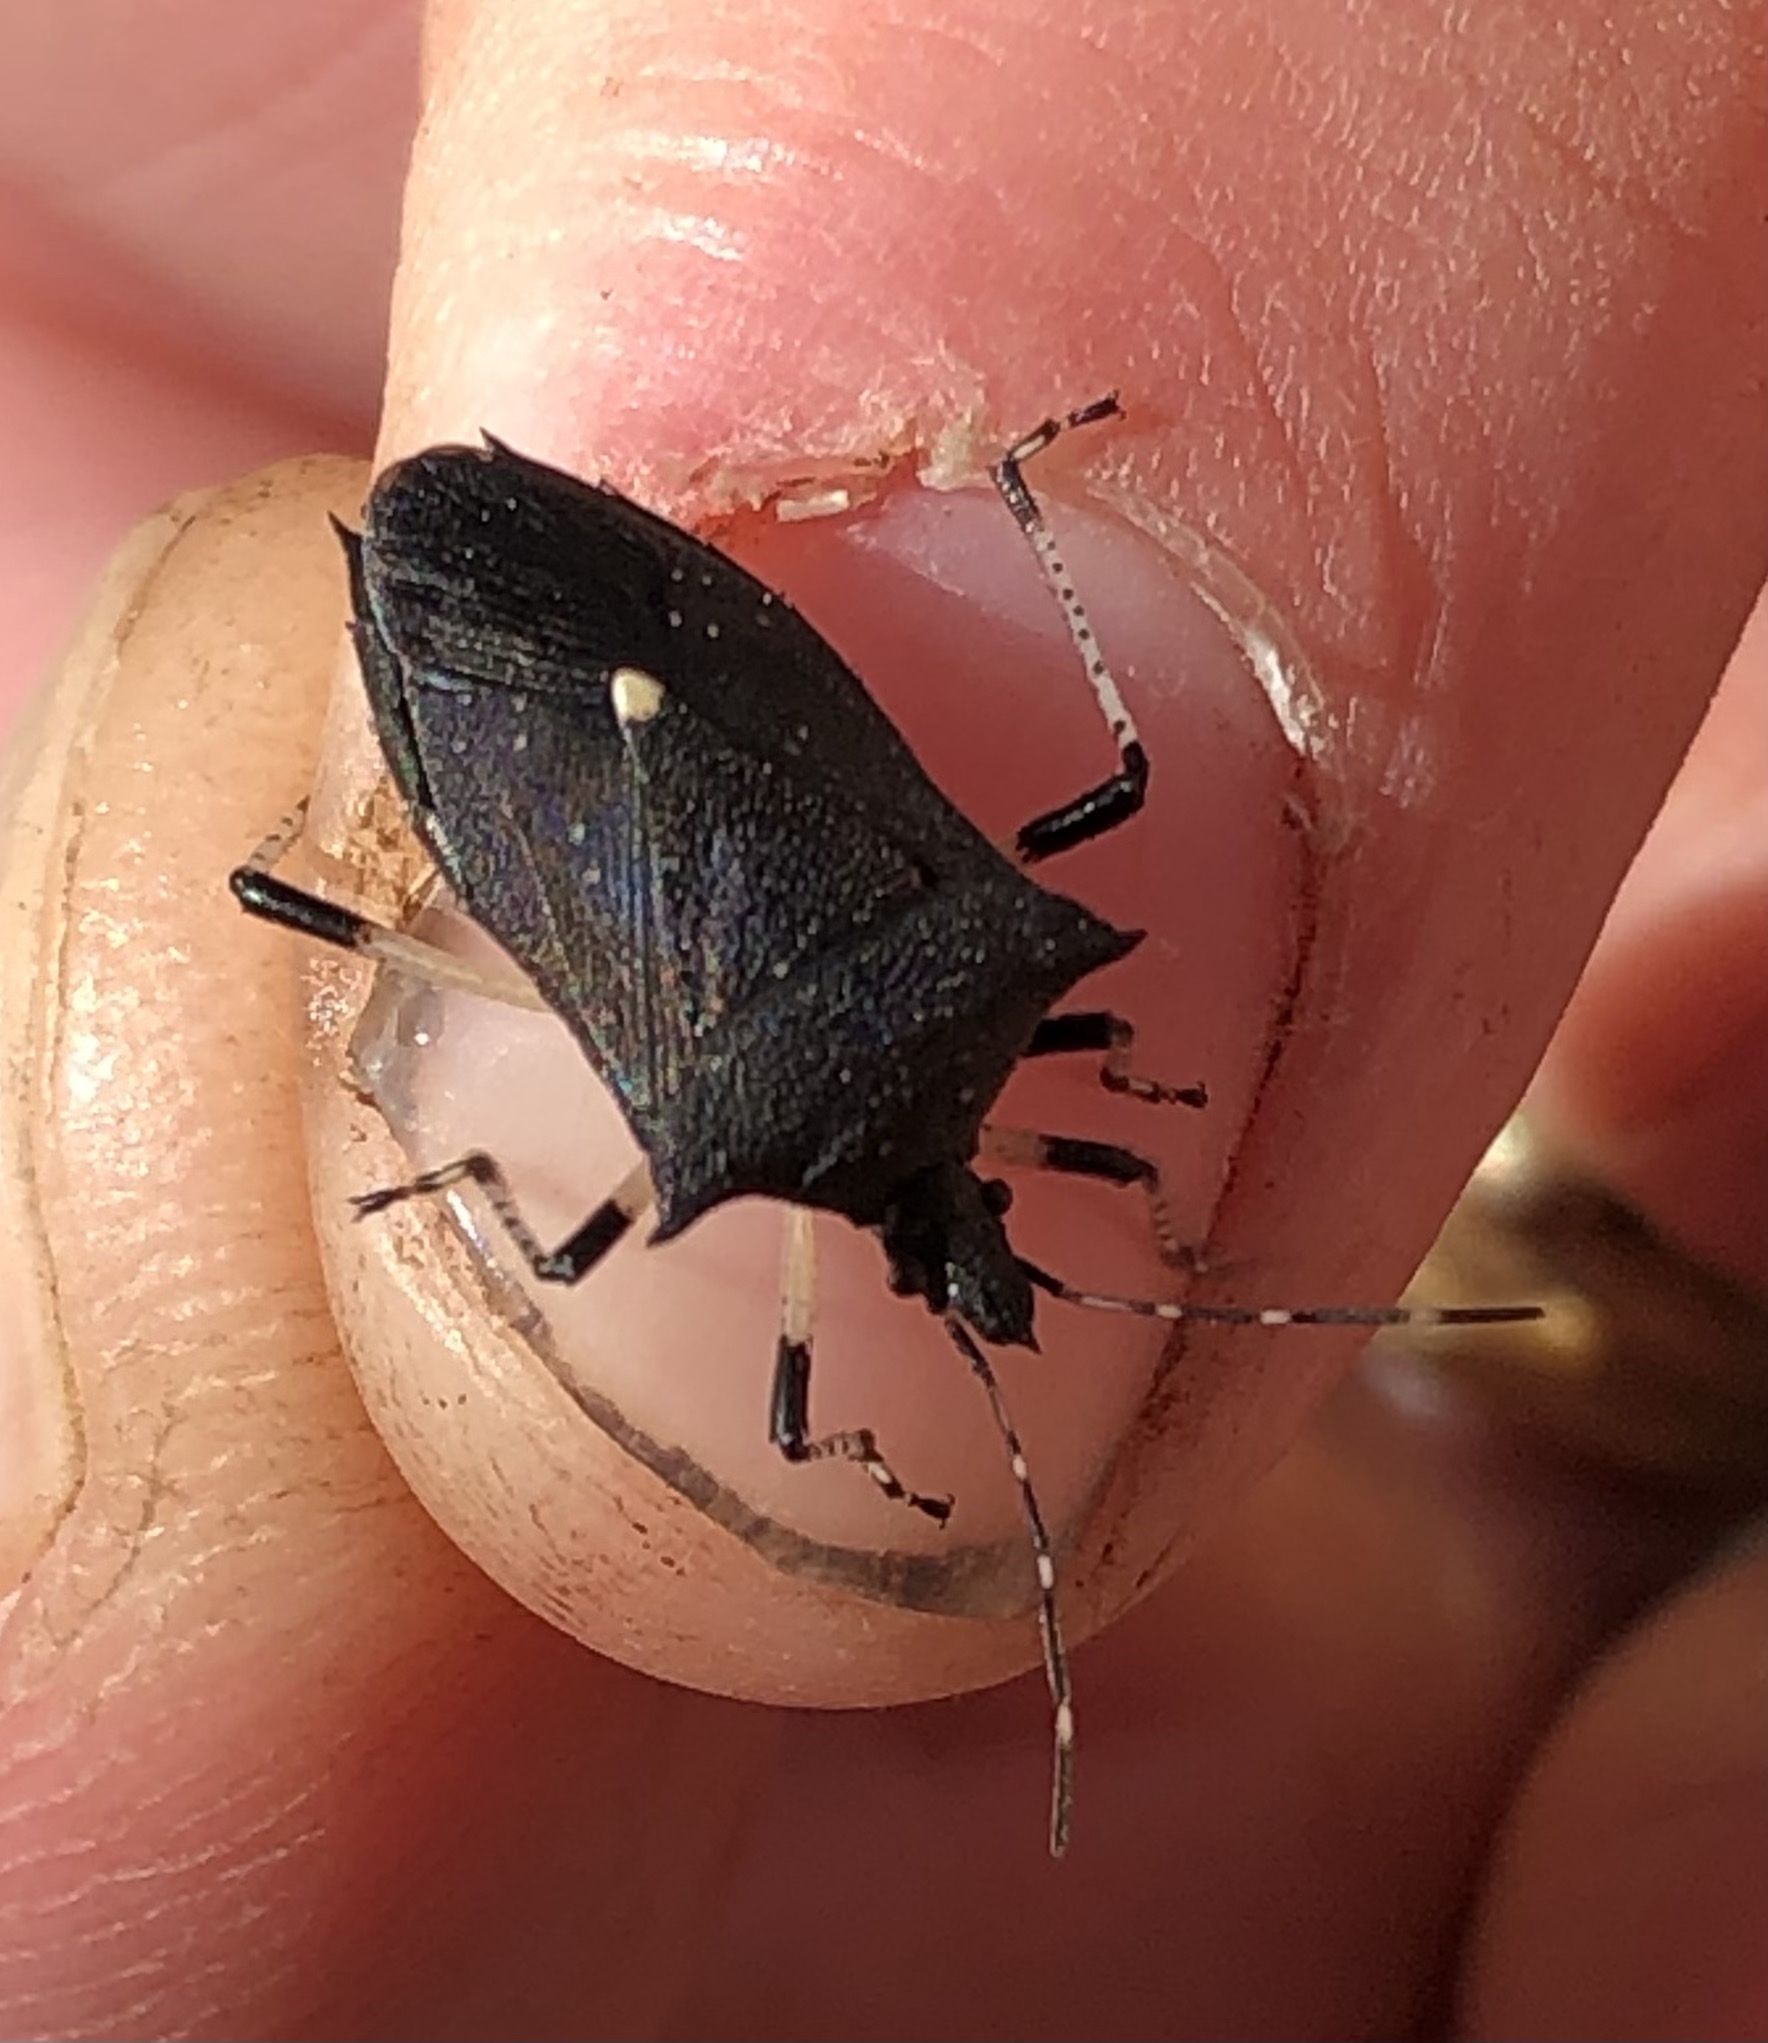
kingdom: Animalia
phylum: Arthropoda
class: Insecta
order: Hemiptera
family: Pentatomidae
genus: Proxys
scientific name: Proxys punctulatus
